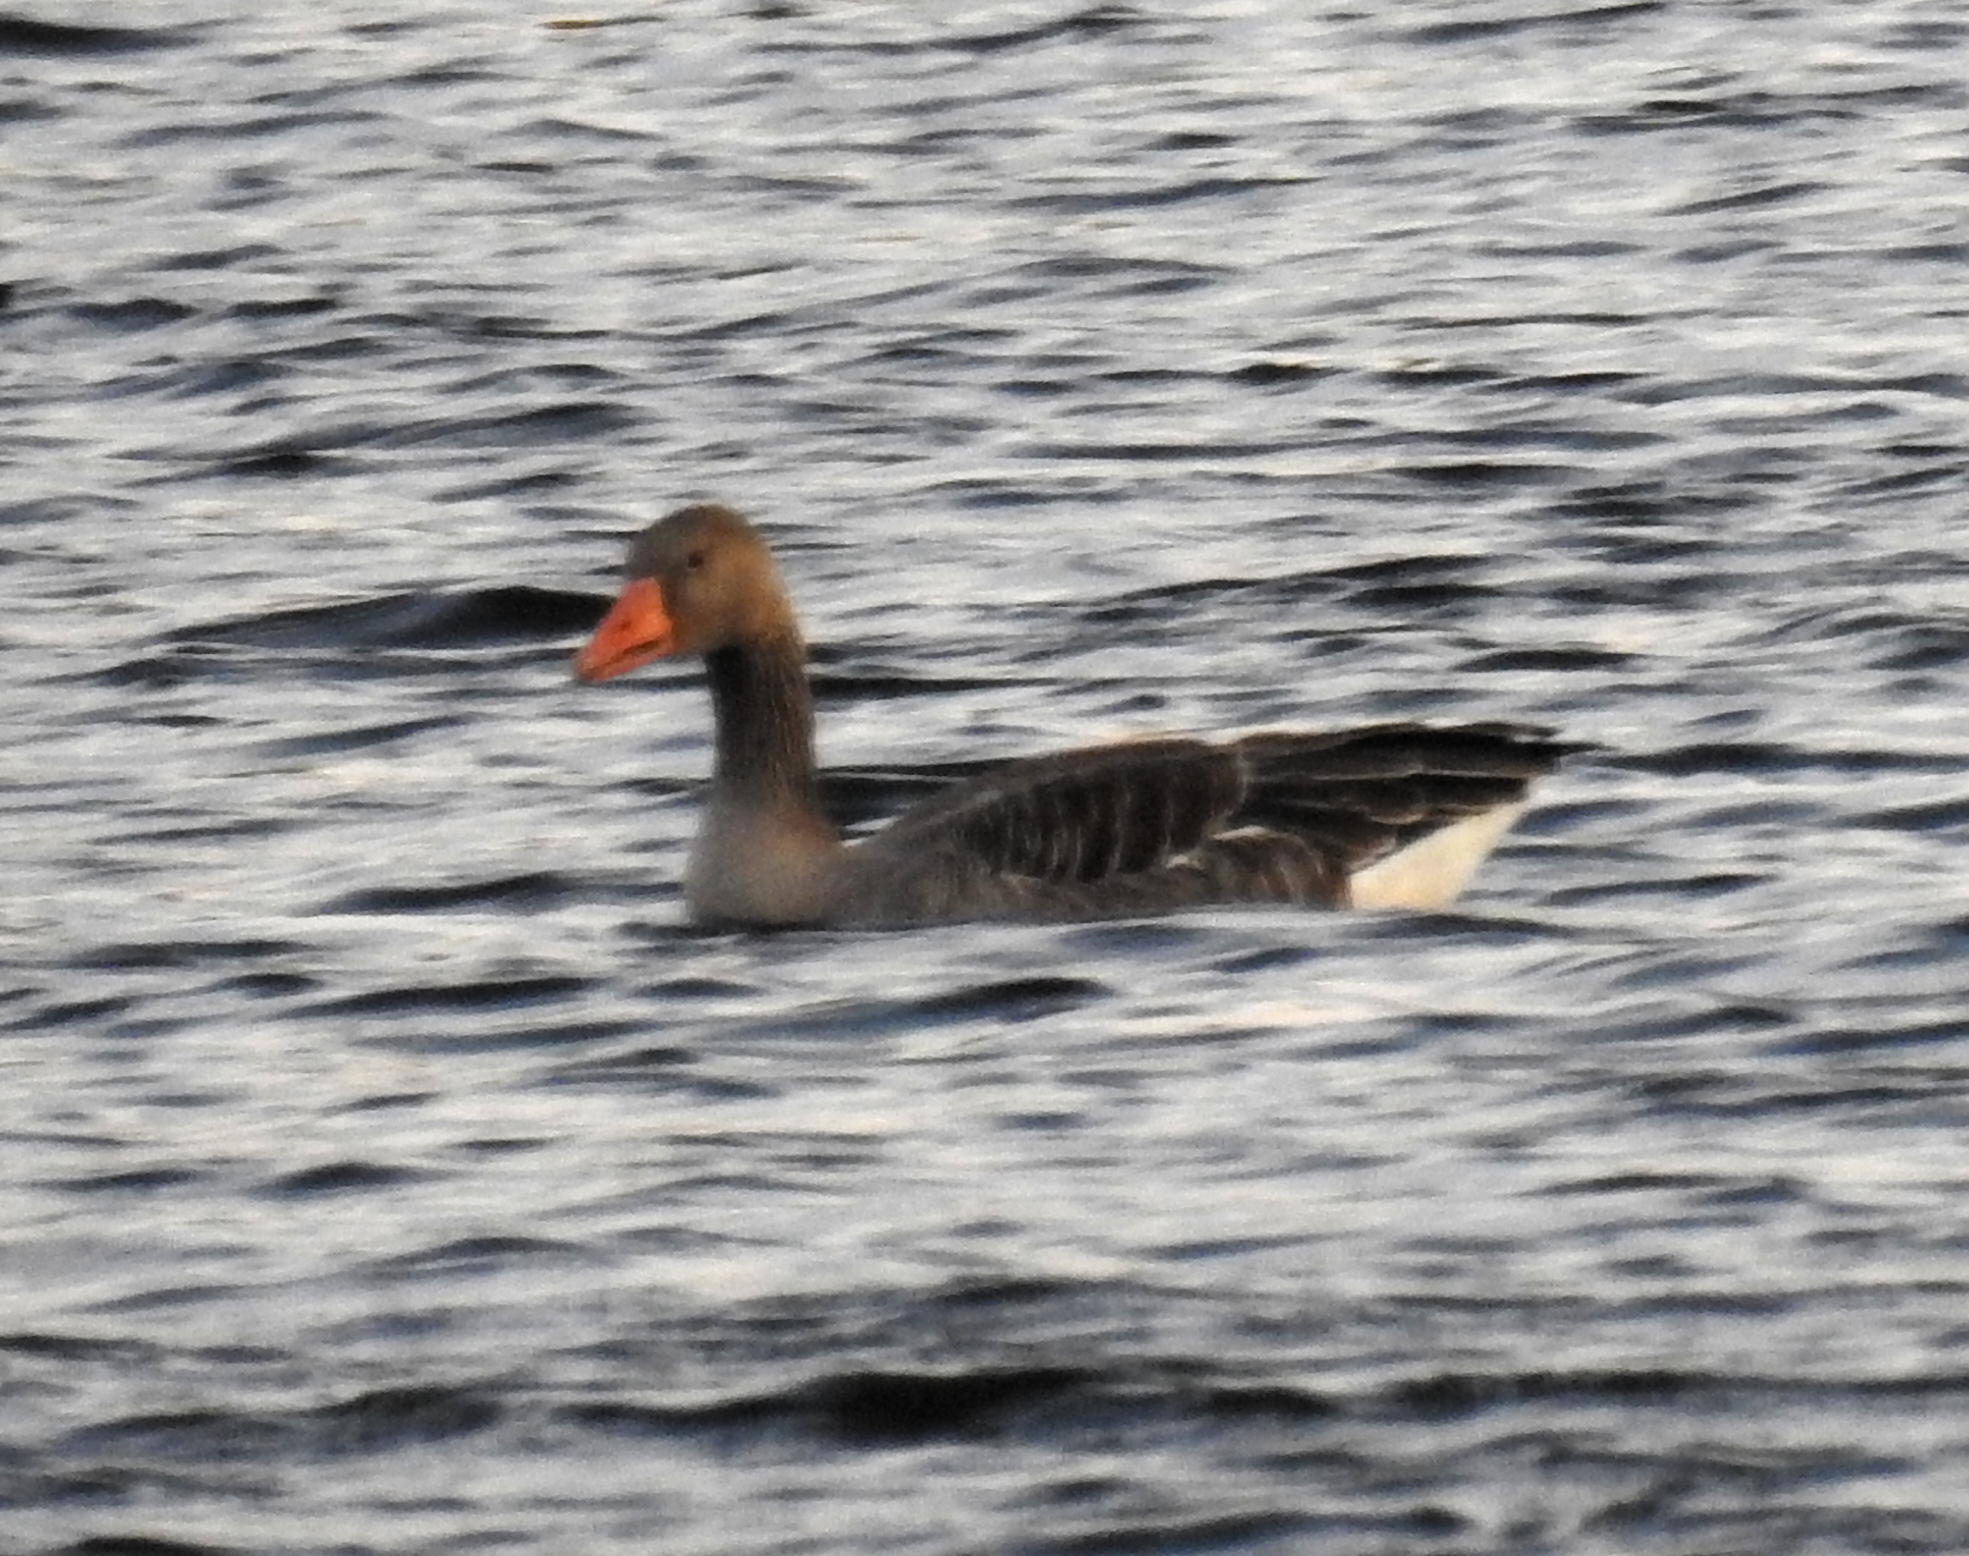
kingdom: Animalia
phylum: Chordata
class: Aves
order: Anseriformes
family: Anatidae
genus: Anser
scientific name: Anser anser
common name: Greylag goose
